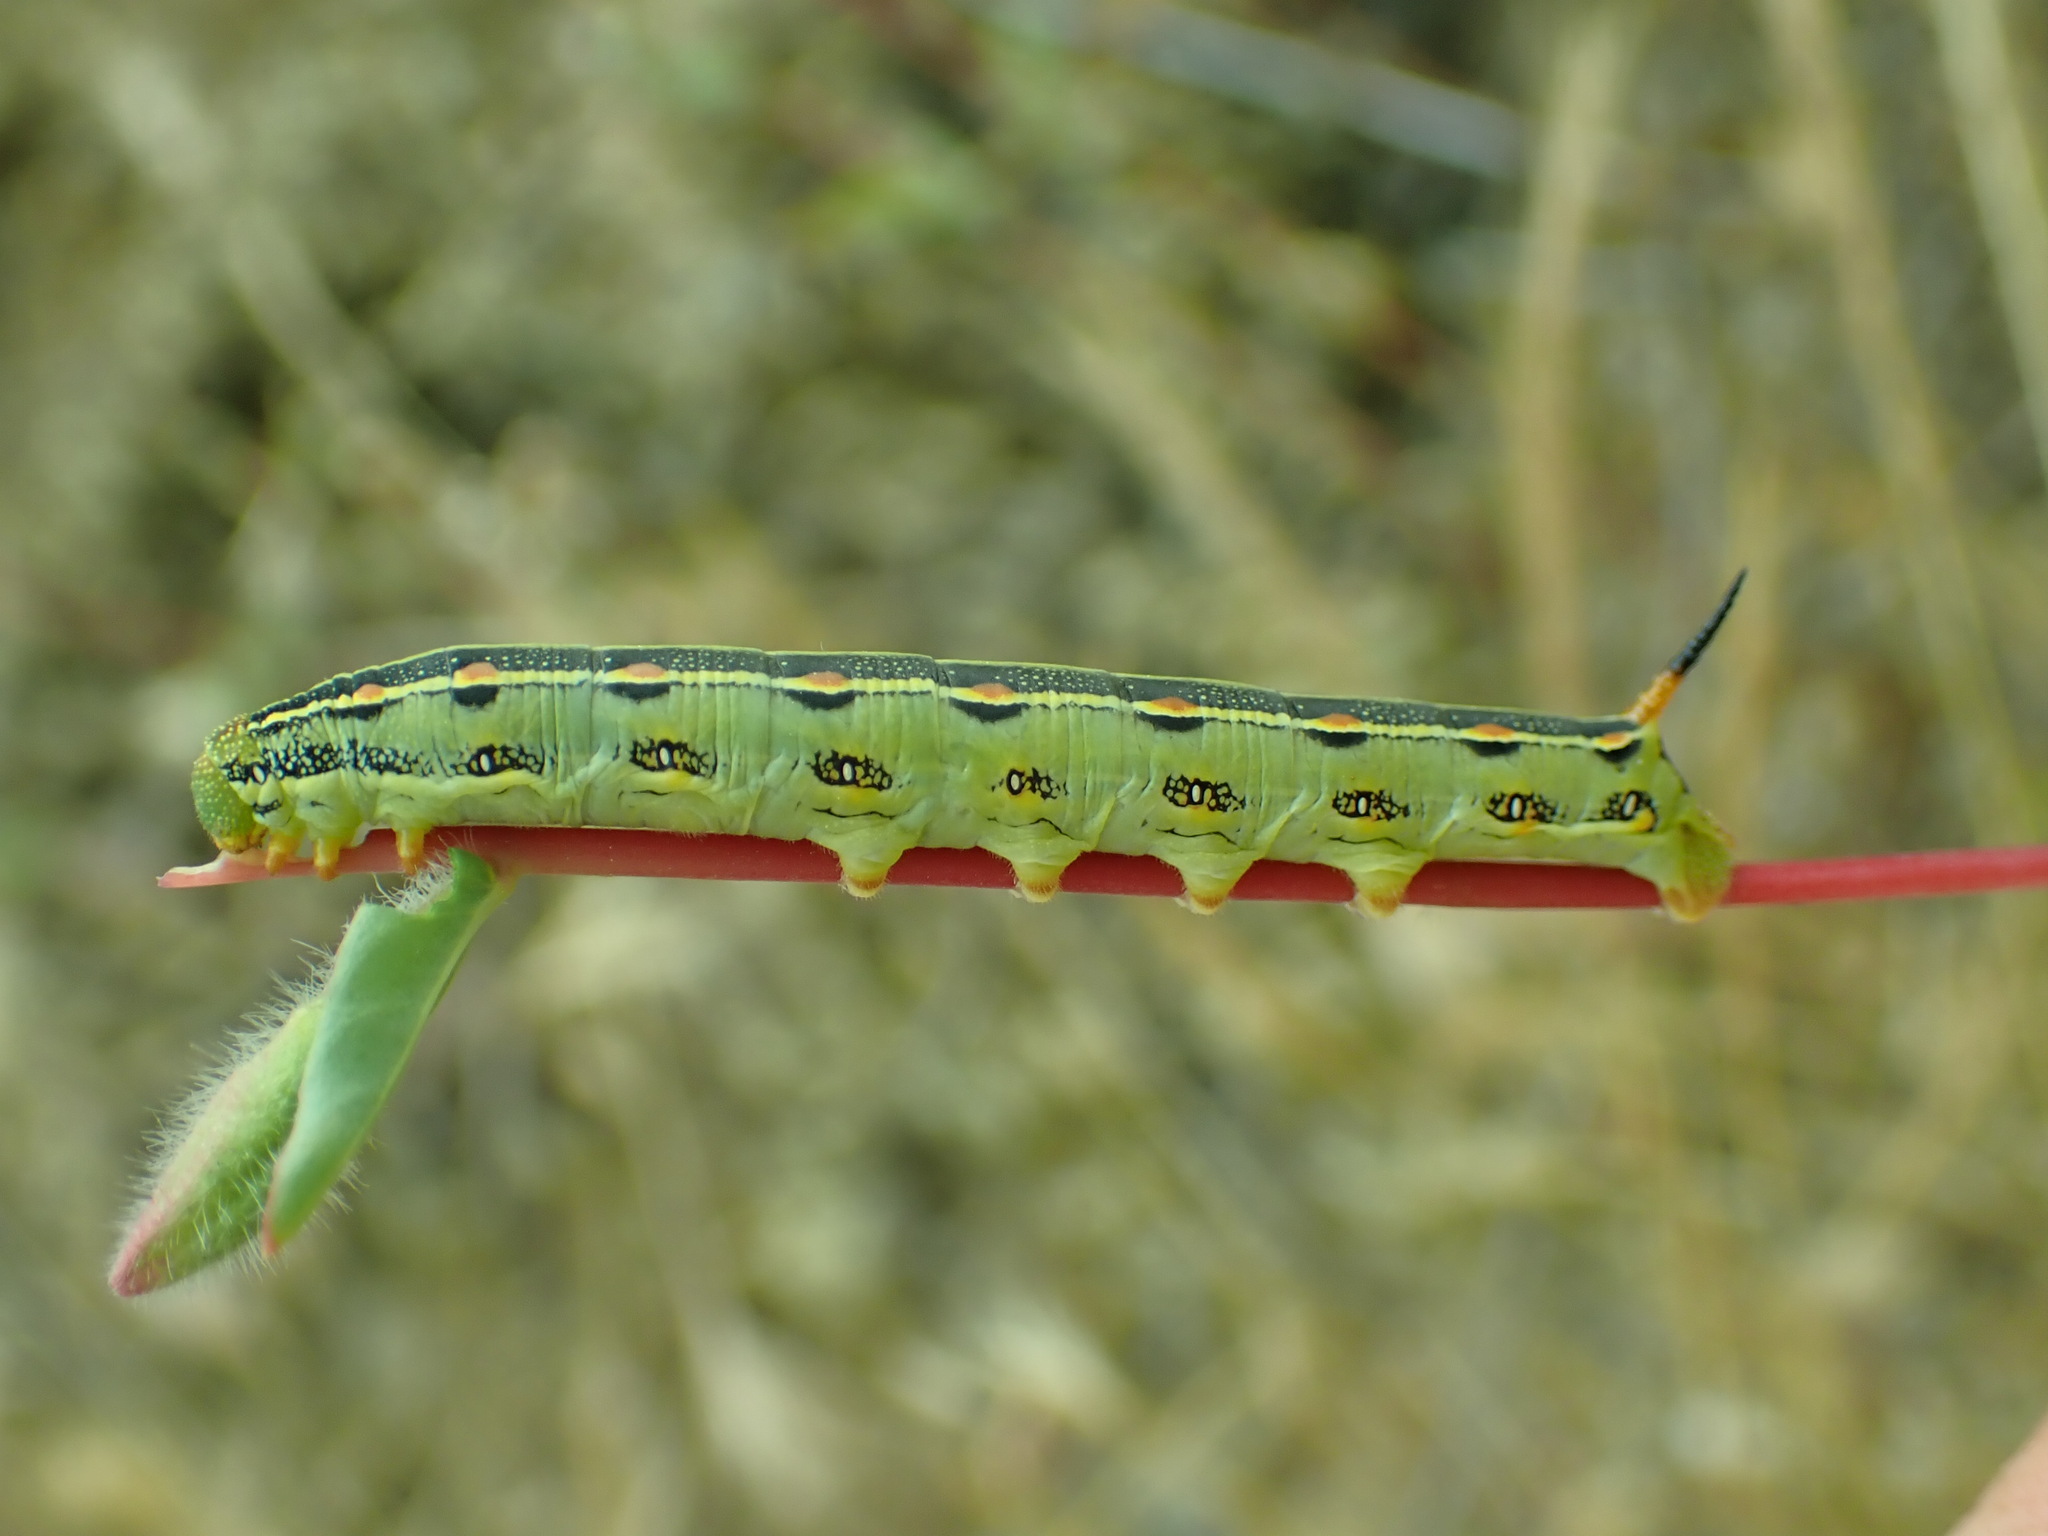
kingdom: Animalia
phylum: Arthropoda
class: Insecta
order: Lepidoptera
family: Sphingidae
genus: Hyles
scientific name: Hyles lineata
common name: White-lined sphinx
